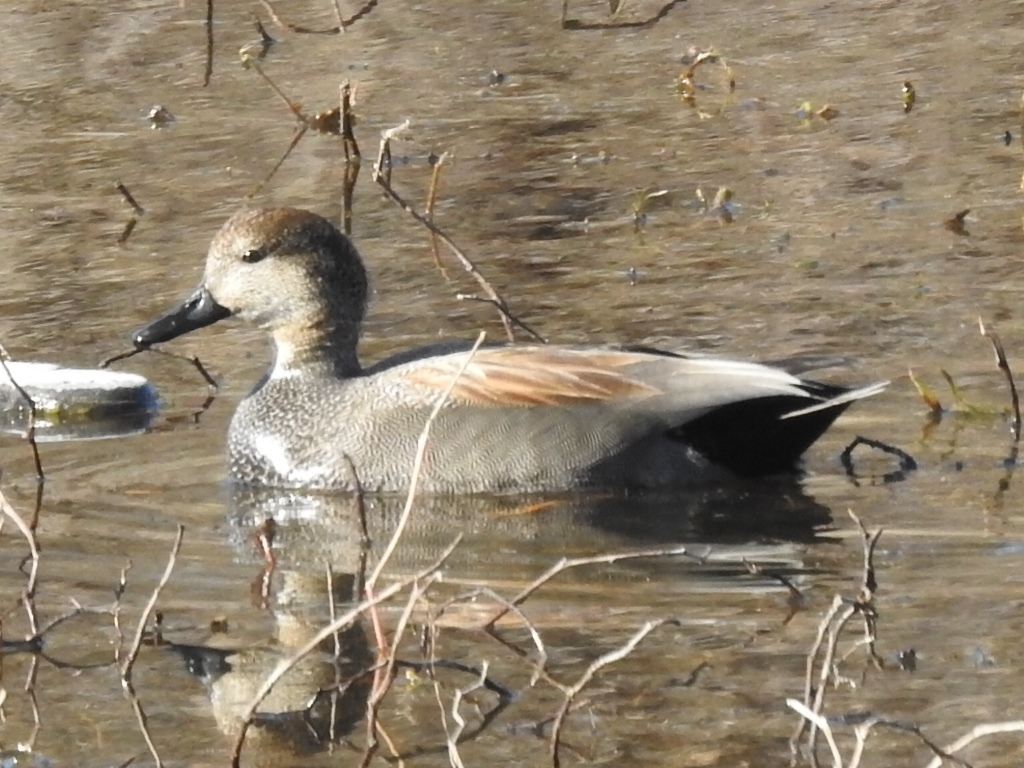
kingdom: Animalia
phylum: Chordata
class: Aves
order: Anseriformes
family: Anatidae
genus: Mareca
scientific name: Mareca strepera
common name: Gadwall
